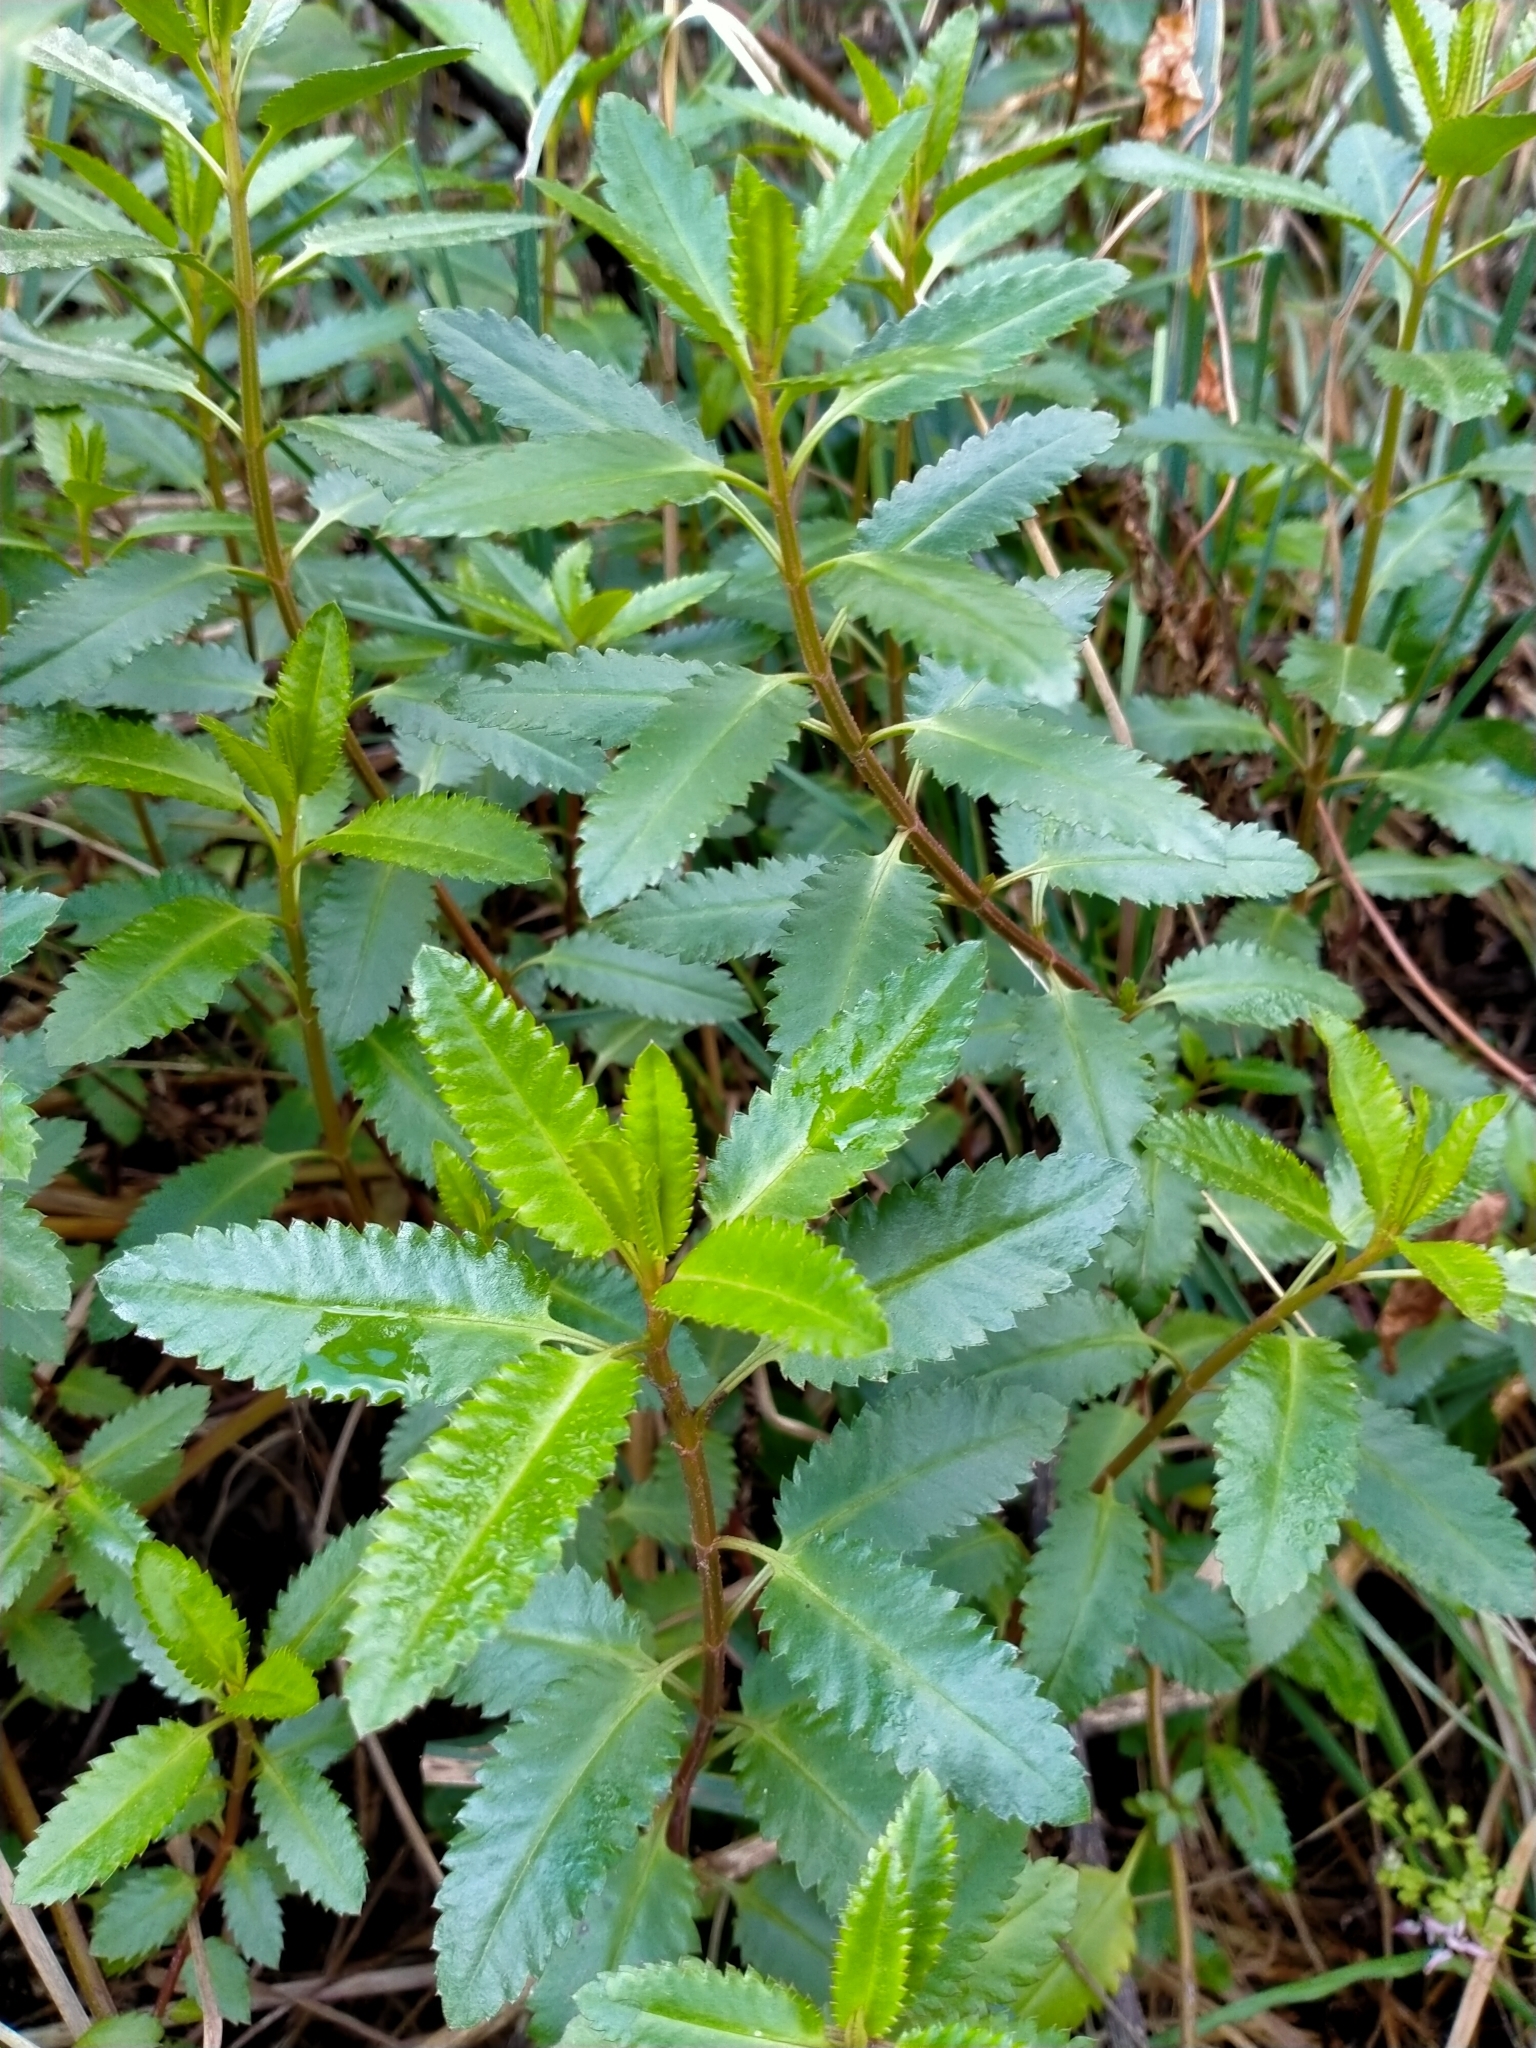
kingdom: Plantae
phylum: Tracheophyta
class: Magnoliopsida
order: Saxifragales
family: Haloragaceae
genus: Haloragis
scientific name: Haloragis erecta
